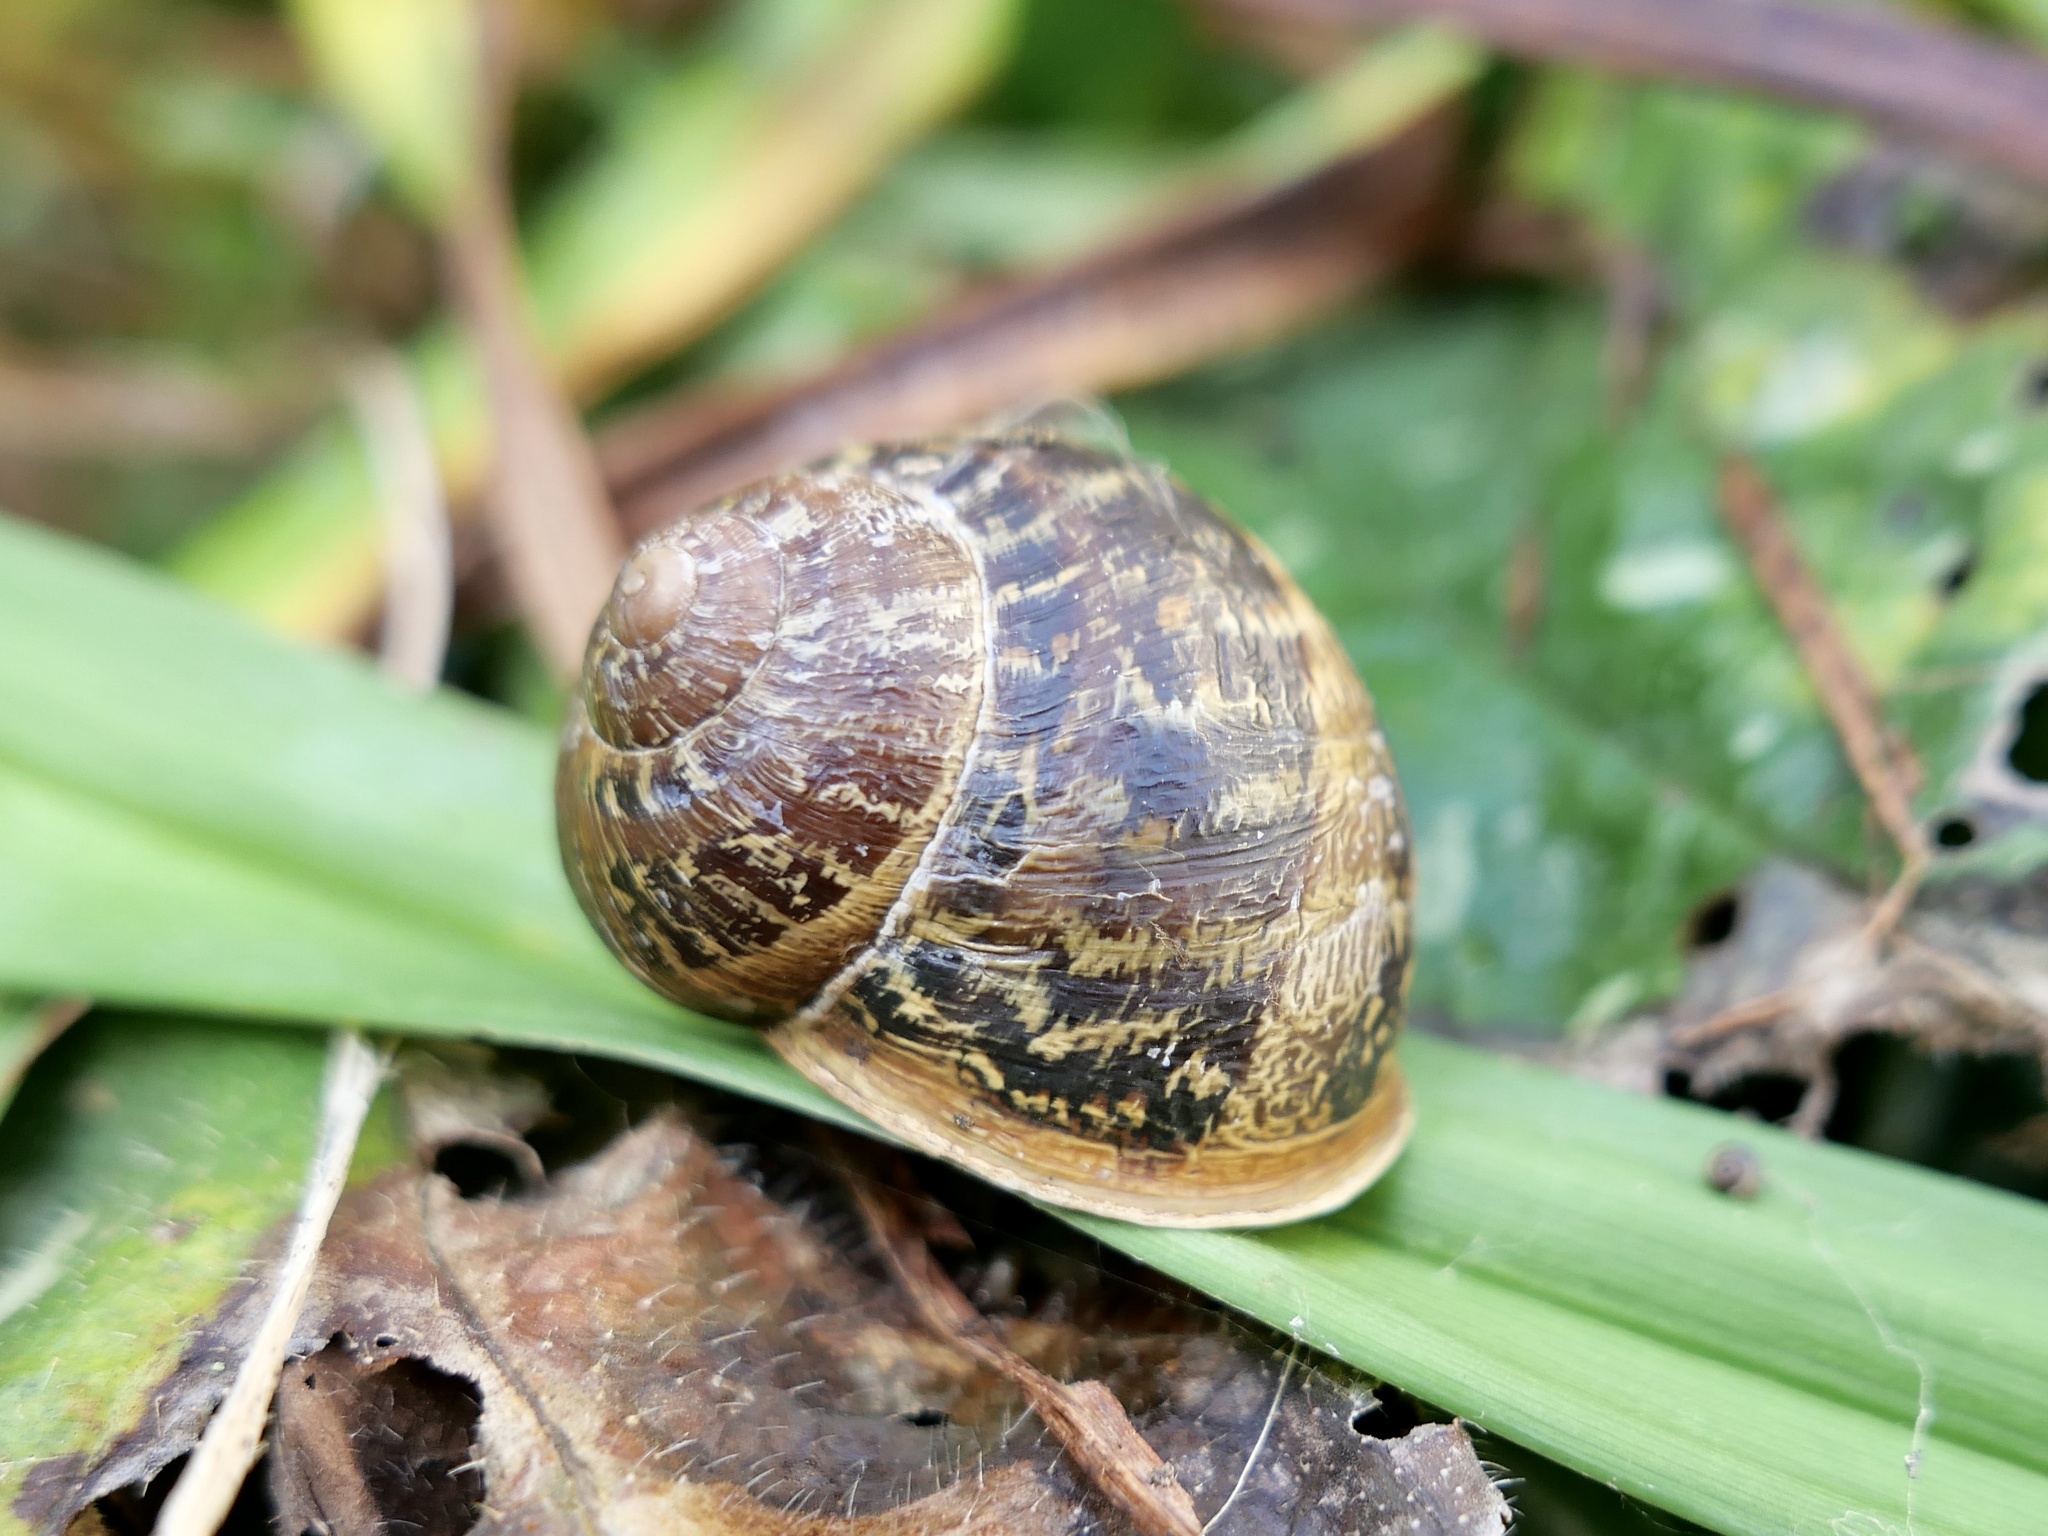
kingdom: Animalia
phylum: Mollusca
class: Gastropoda
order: Stylommatophora
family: Helicidae
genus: Cornu
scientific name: Cornu aspersum
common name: Brown garden snail
